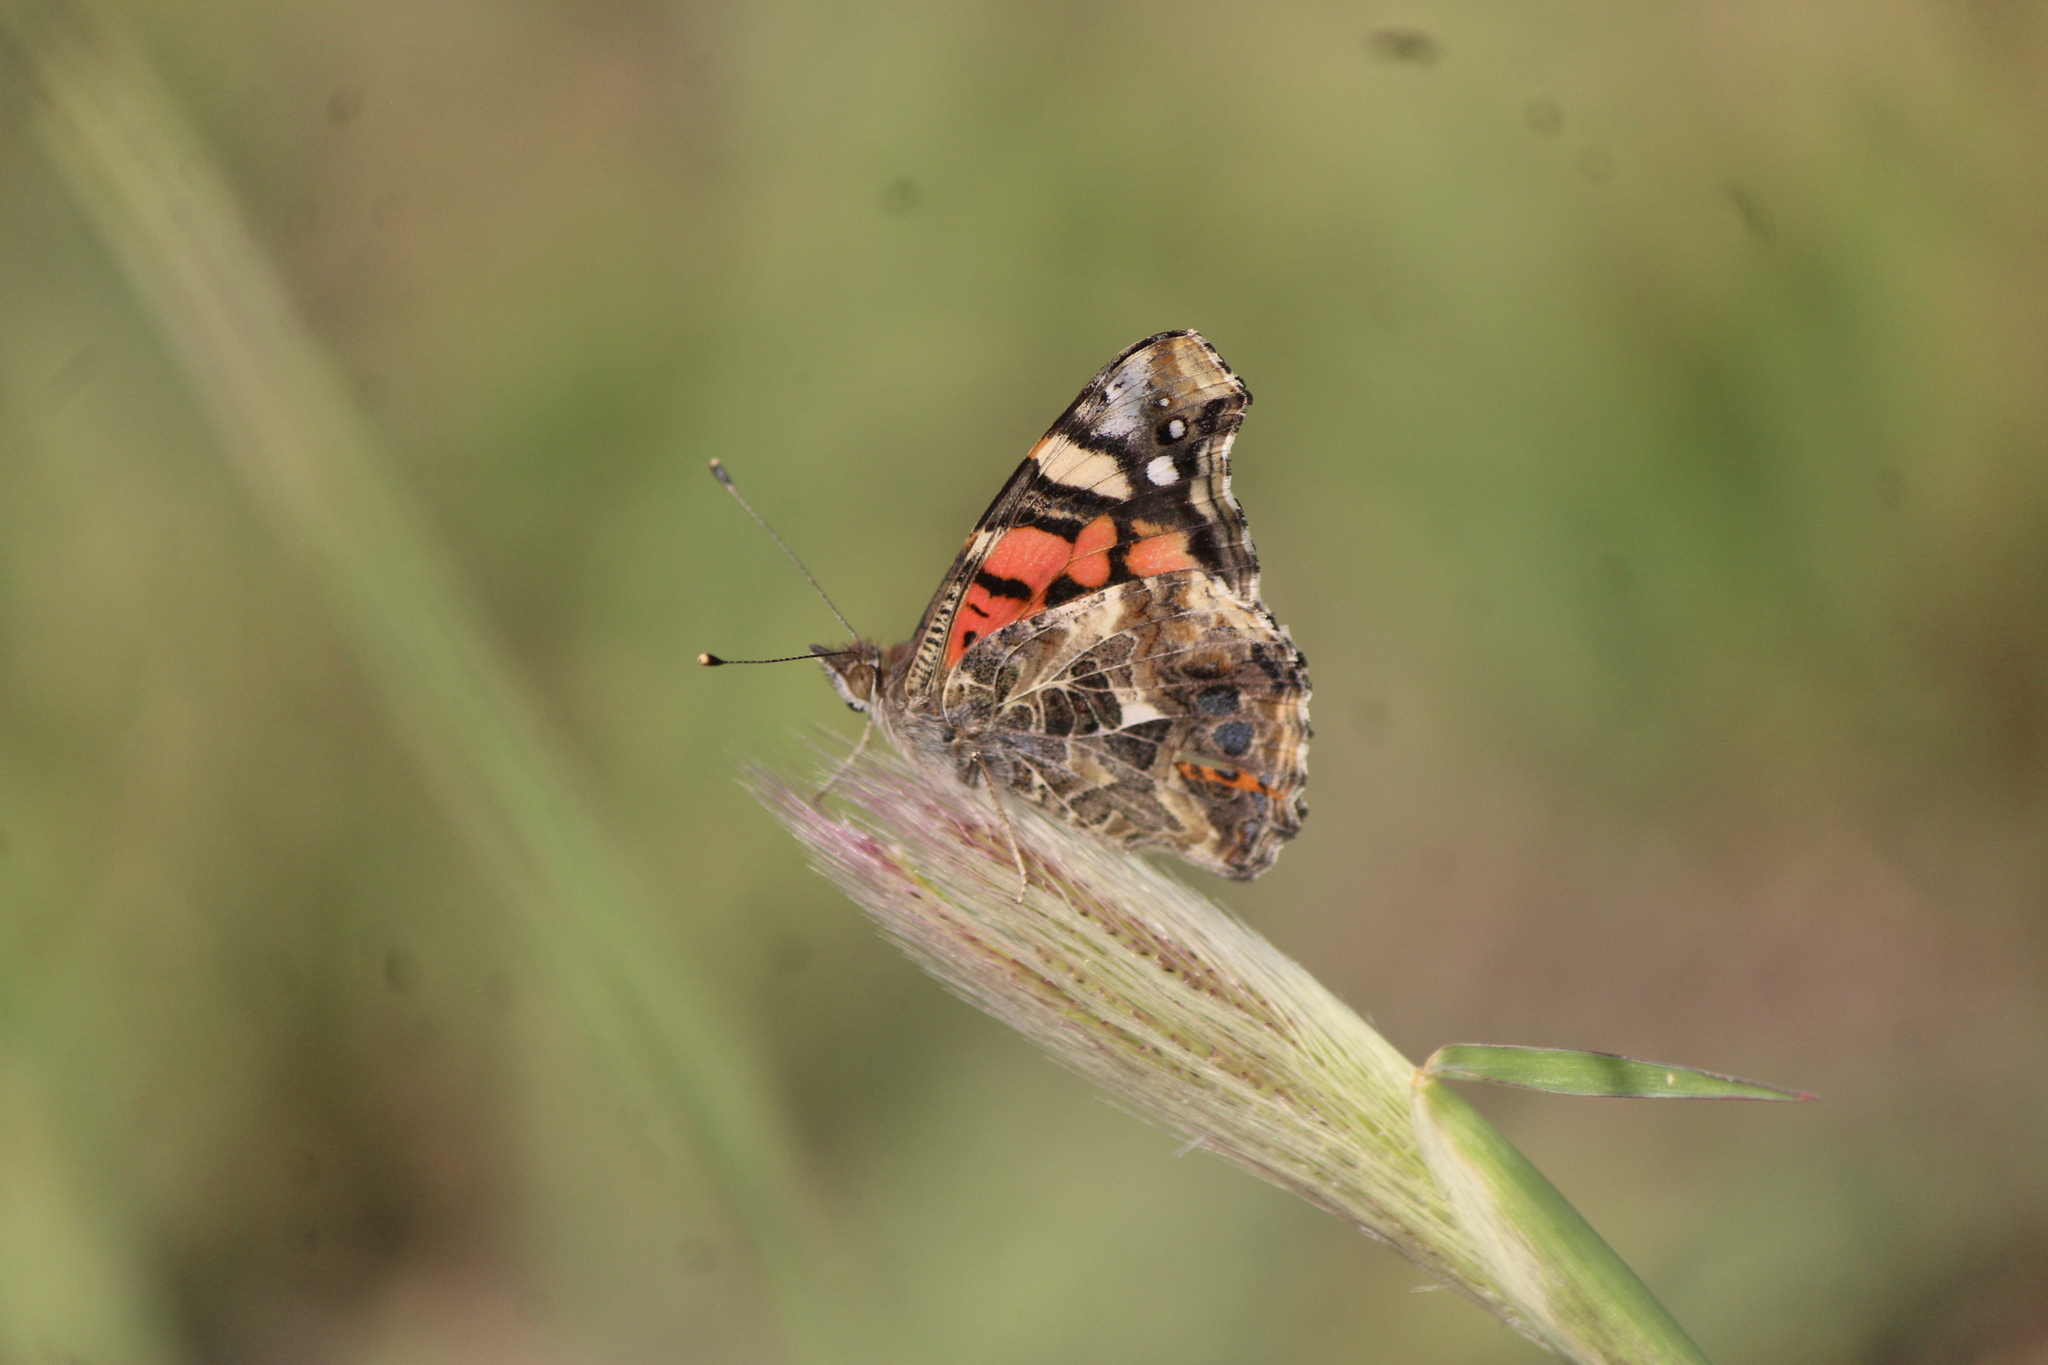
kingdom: Animalia
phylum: Arthropoda
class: Insecta
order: Lepidoptera
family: Nymphalidae
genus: Vanessa
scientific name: Vanessa annabella
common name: West coast lady
